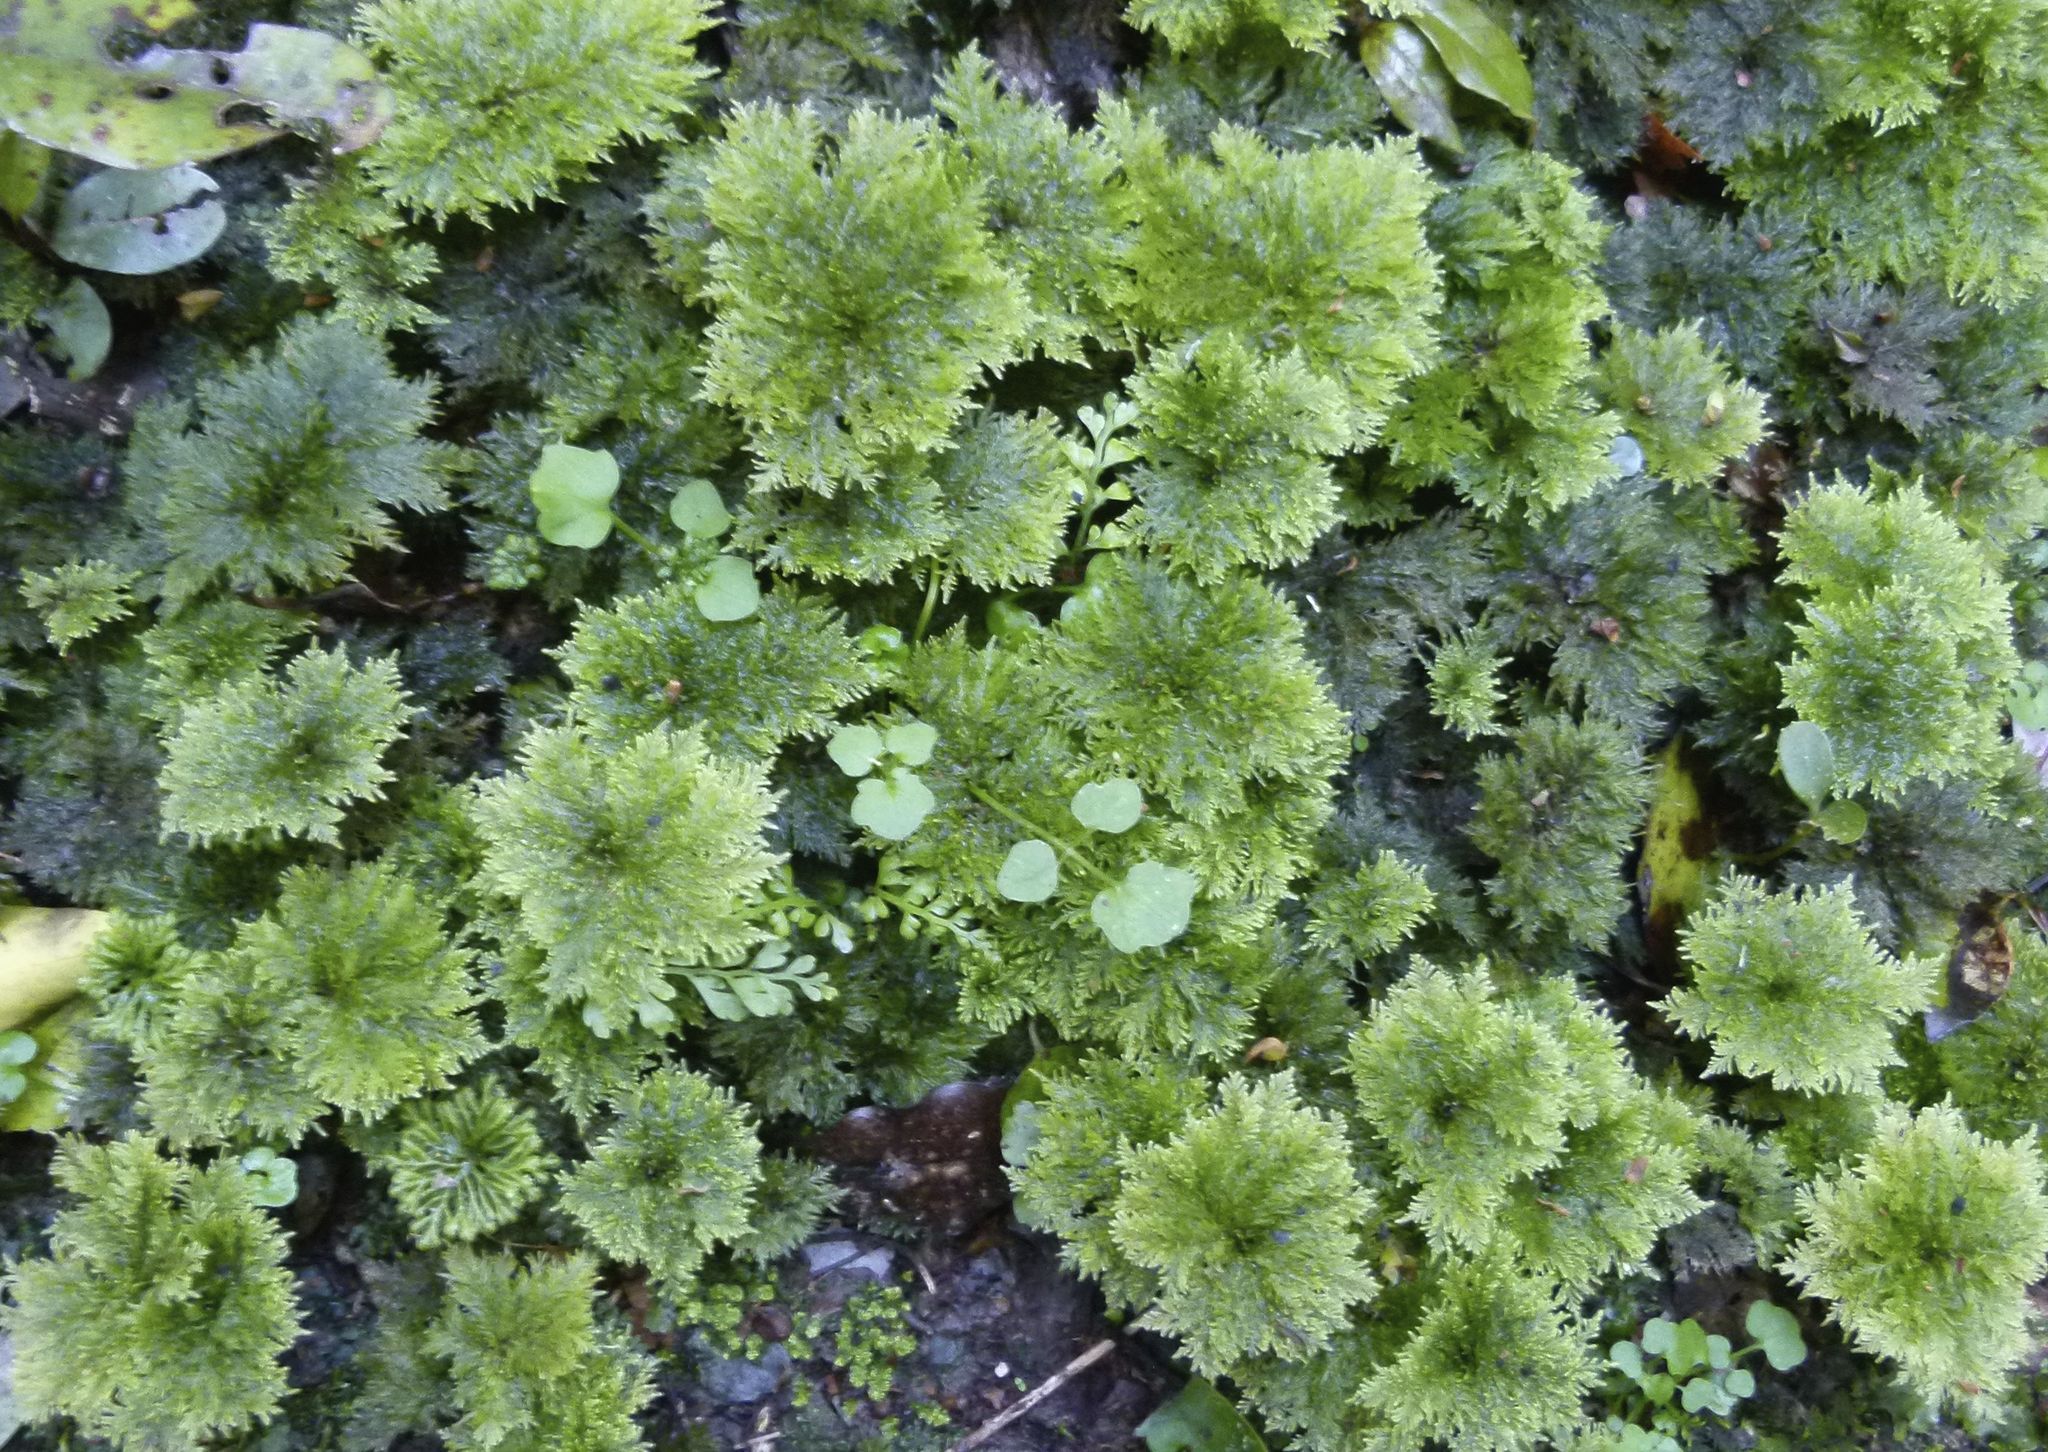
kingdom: Plantae
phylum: Bryophyta
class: Bryopsida
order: Hypopterygiales
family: Hypopterygiaceae
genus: Dendrohypopterygium
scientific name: Dendrohypopterygium filiculiforme
